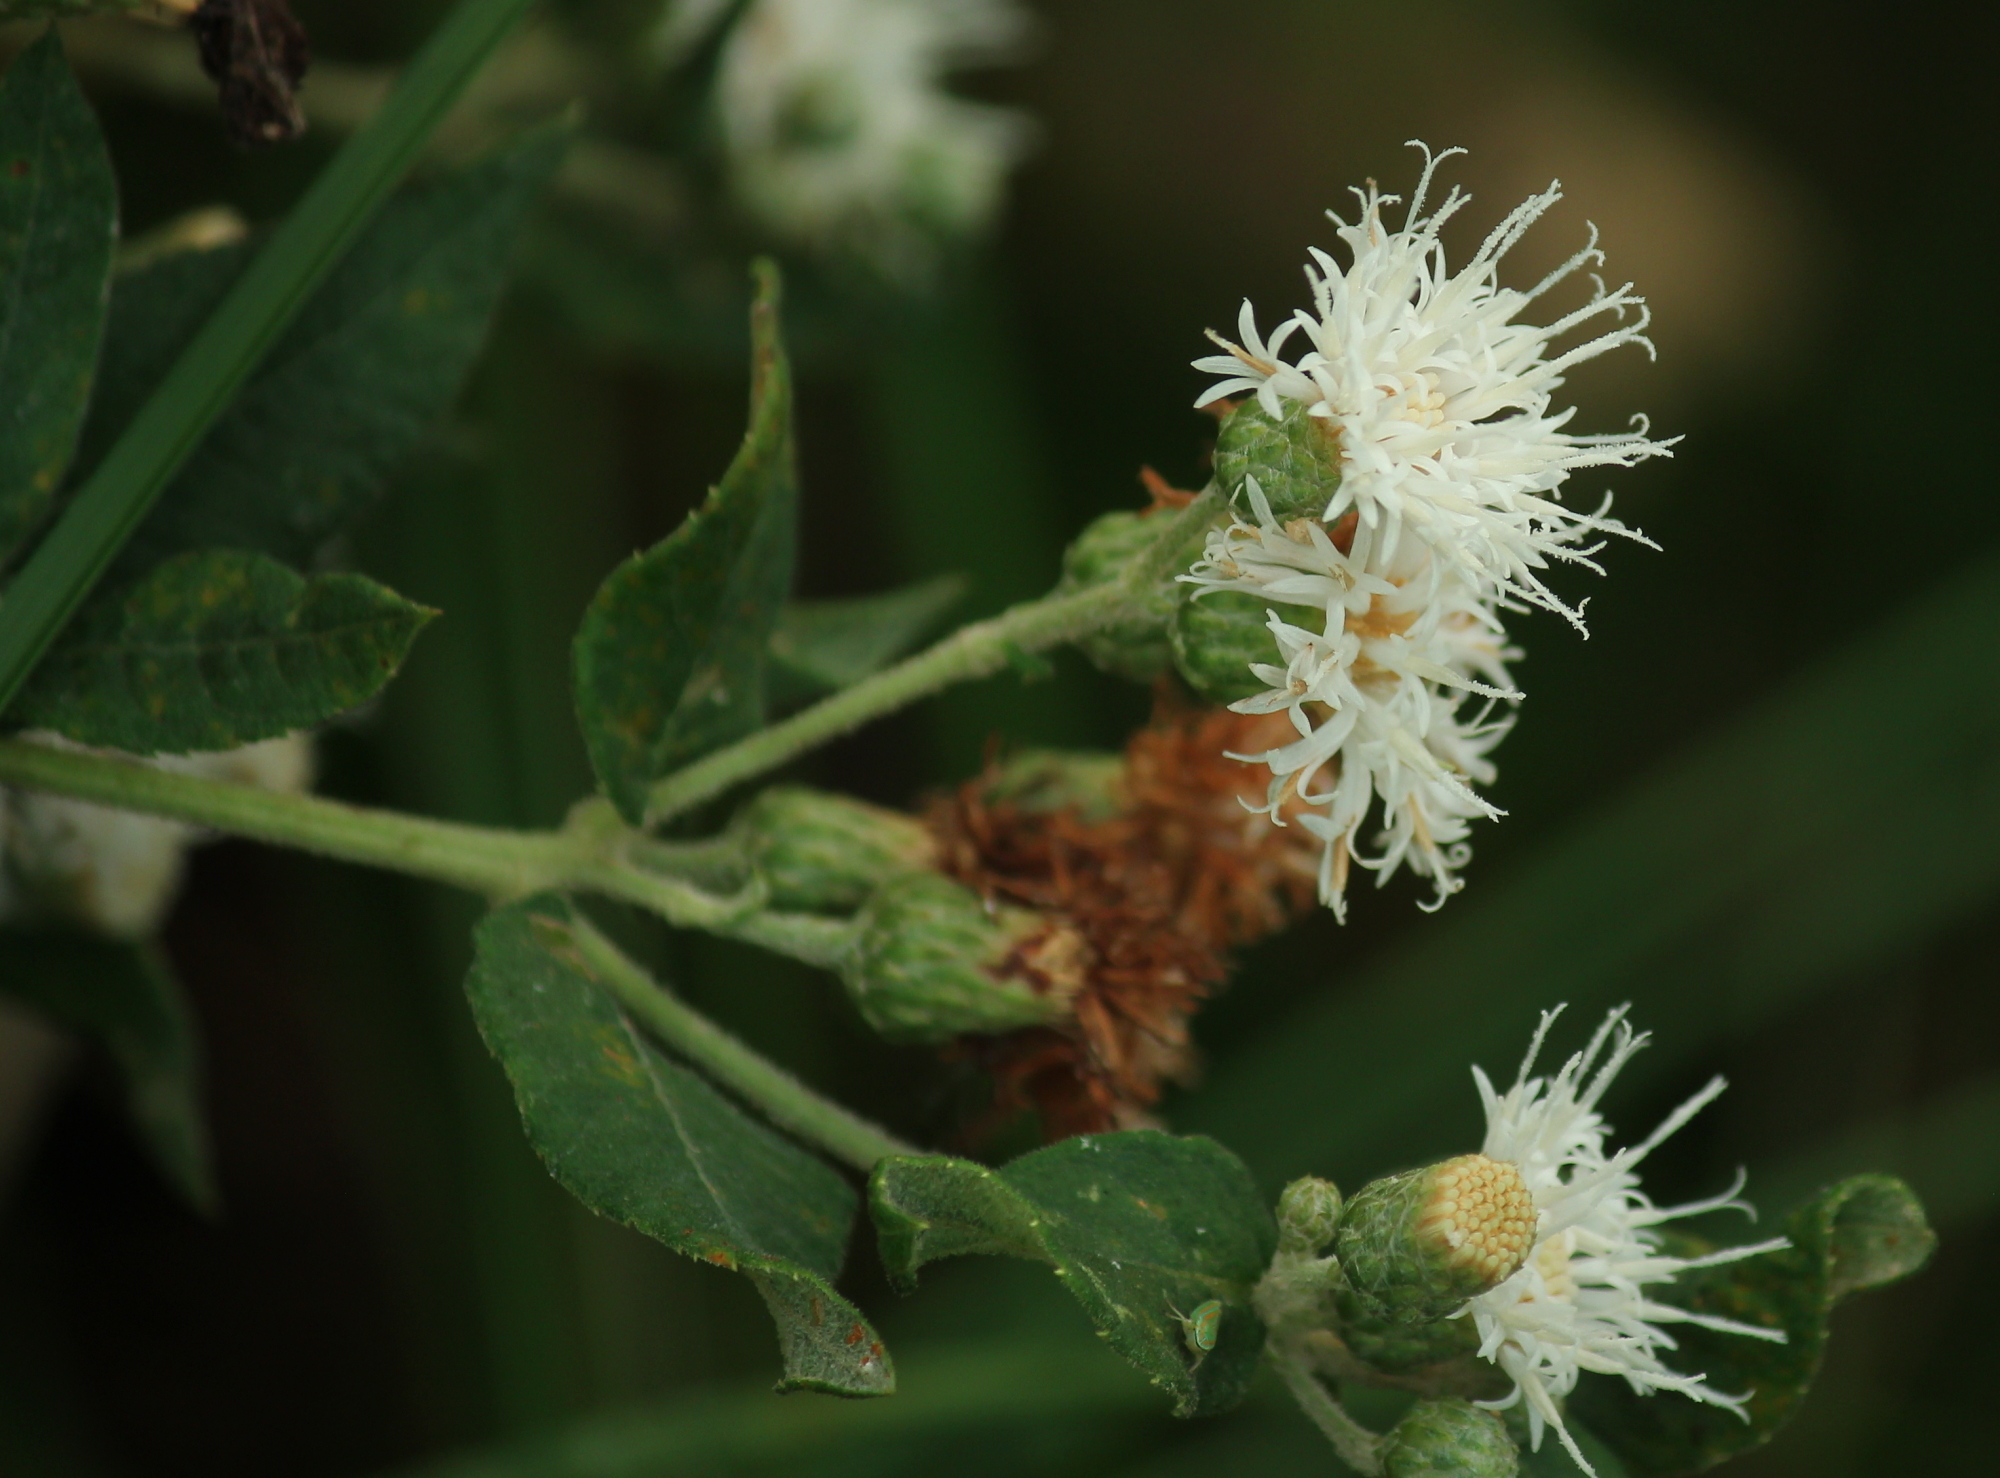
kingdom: Plantae
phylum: Tracheophyta
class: Magnoliopsida
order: Asterales
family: Asteraceae
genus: Vernonia
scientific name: Vernonia missurica
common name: Missouri ironweed
